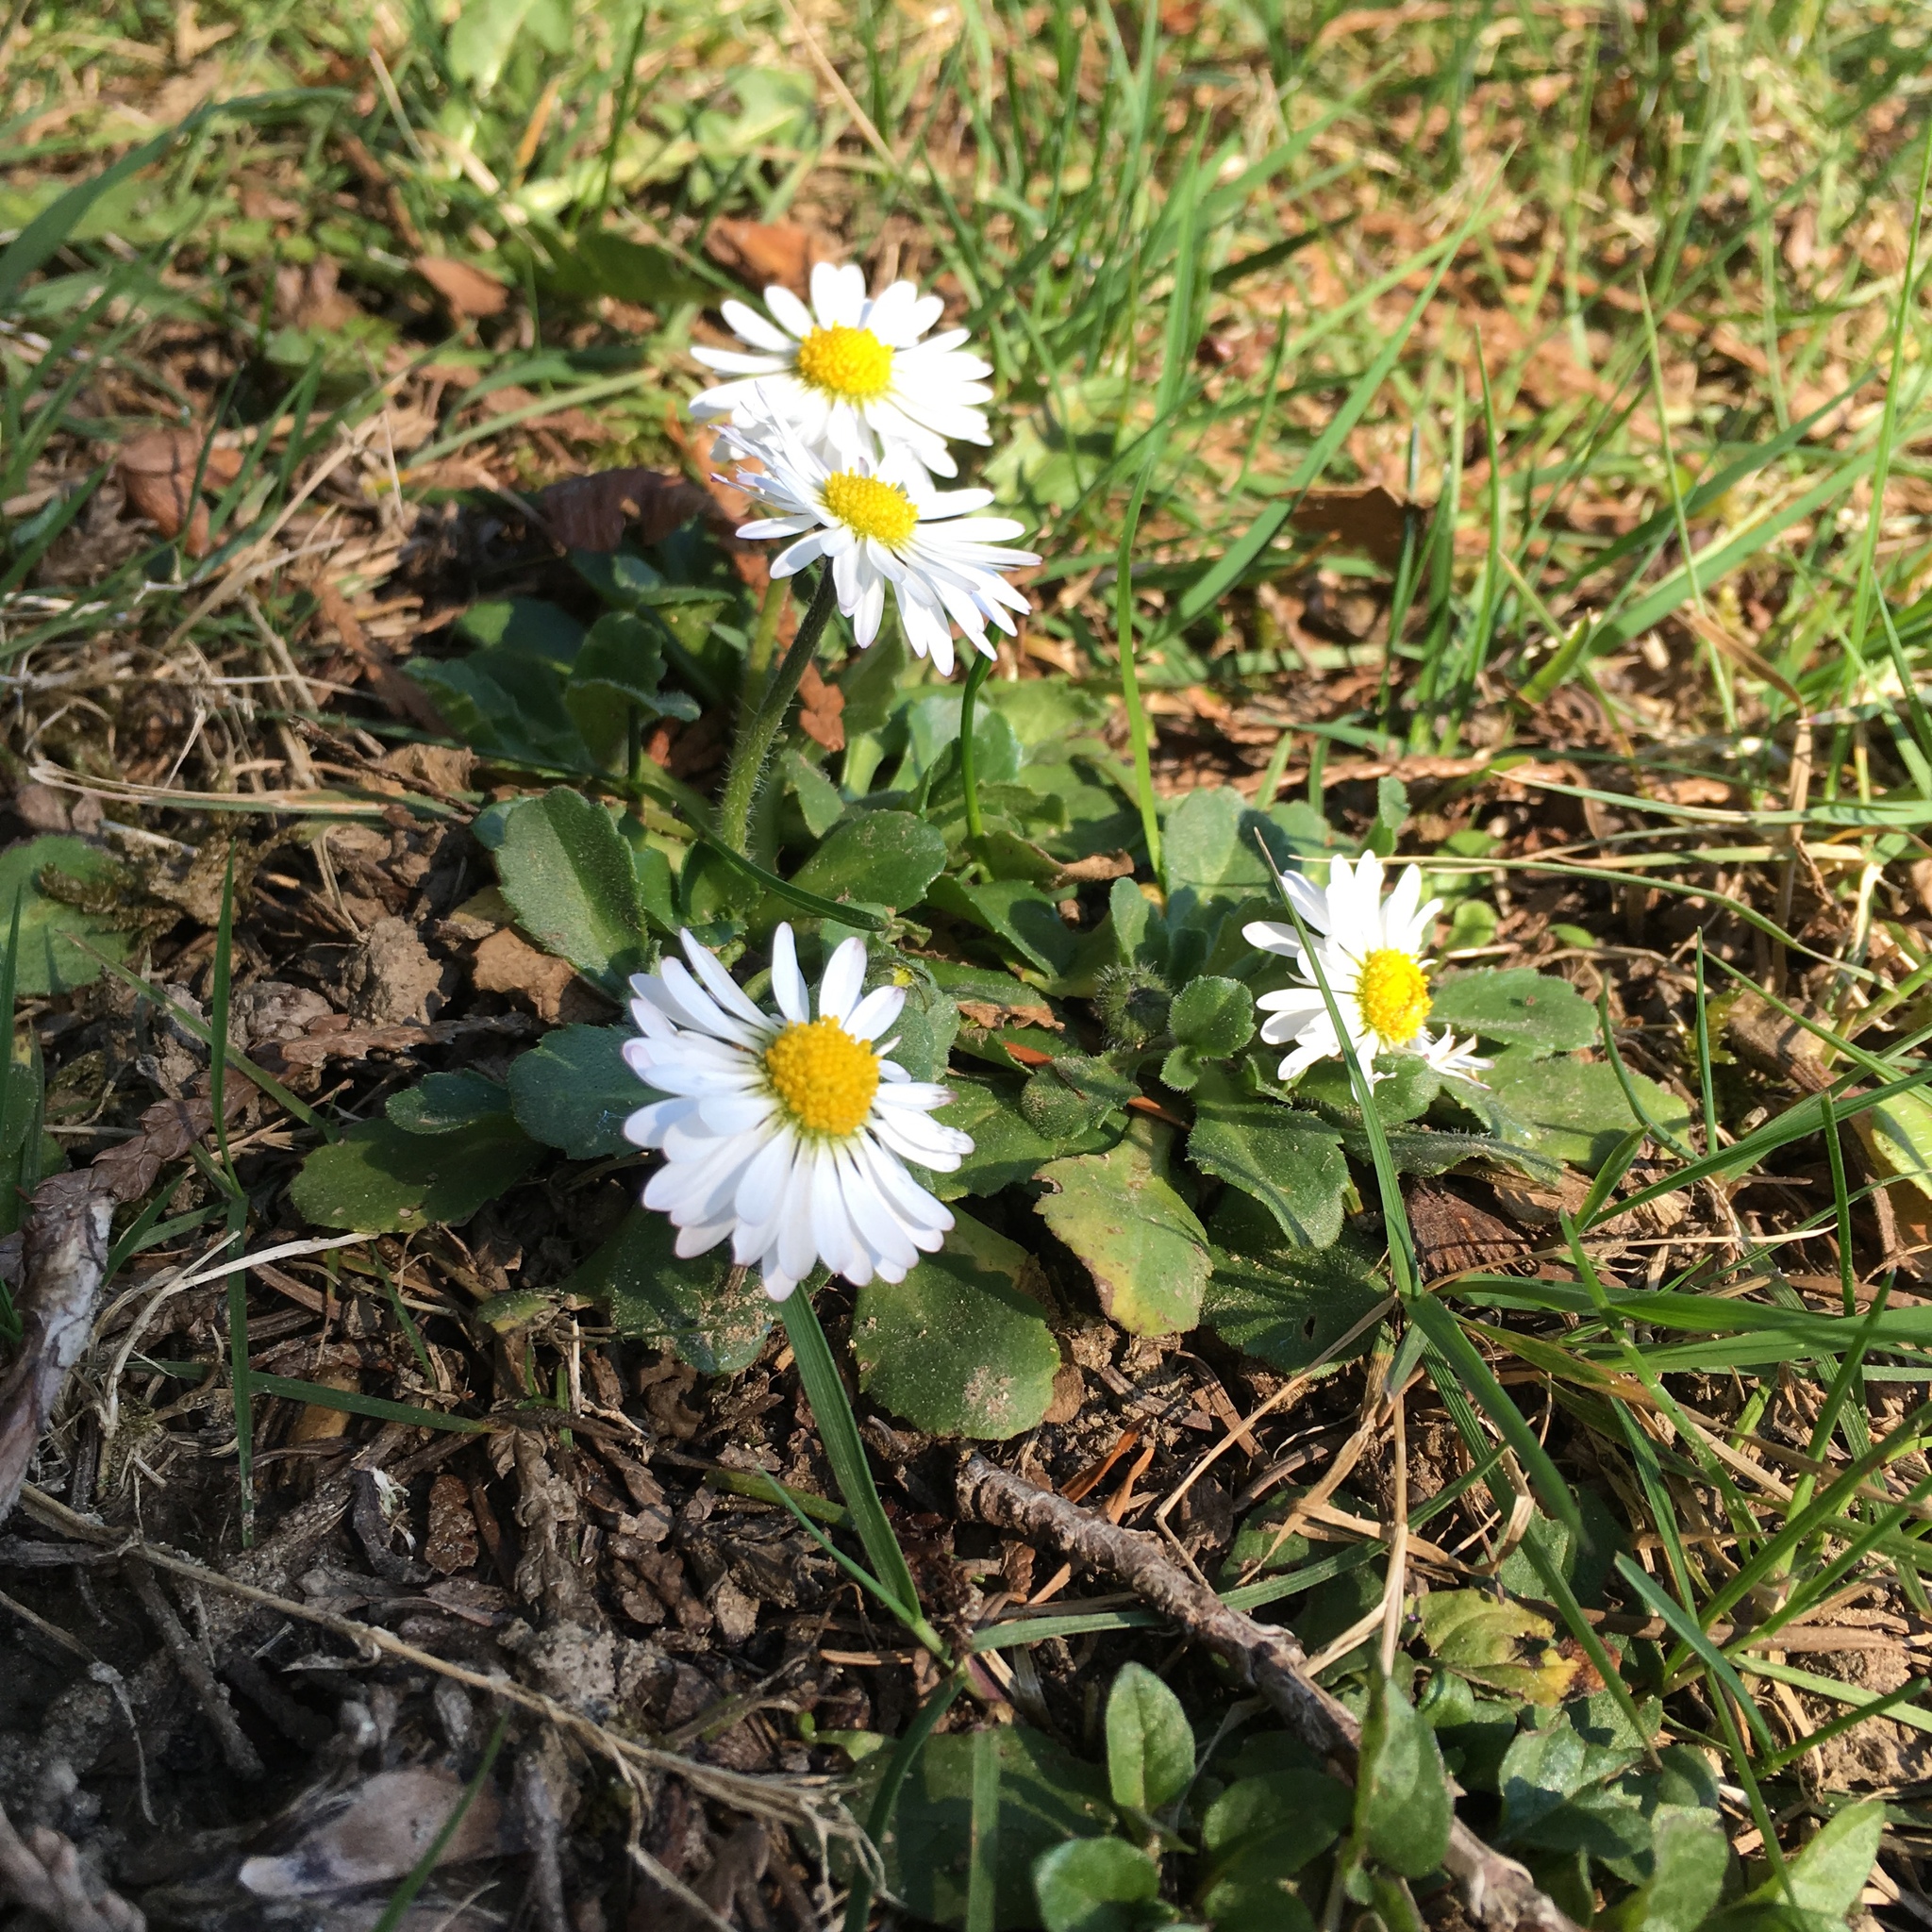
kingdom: Plantae
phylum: Tracheophyta
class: Magnoliopsida
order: Asterales
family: Asteraceae
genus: Bellis
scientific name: Bellis perennis
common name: Lawndaisy
